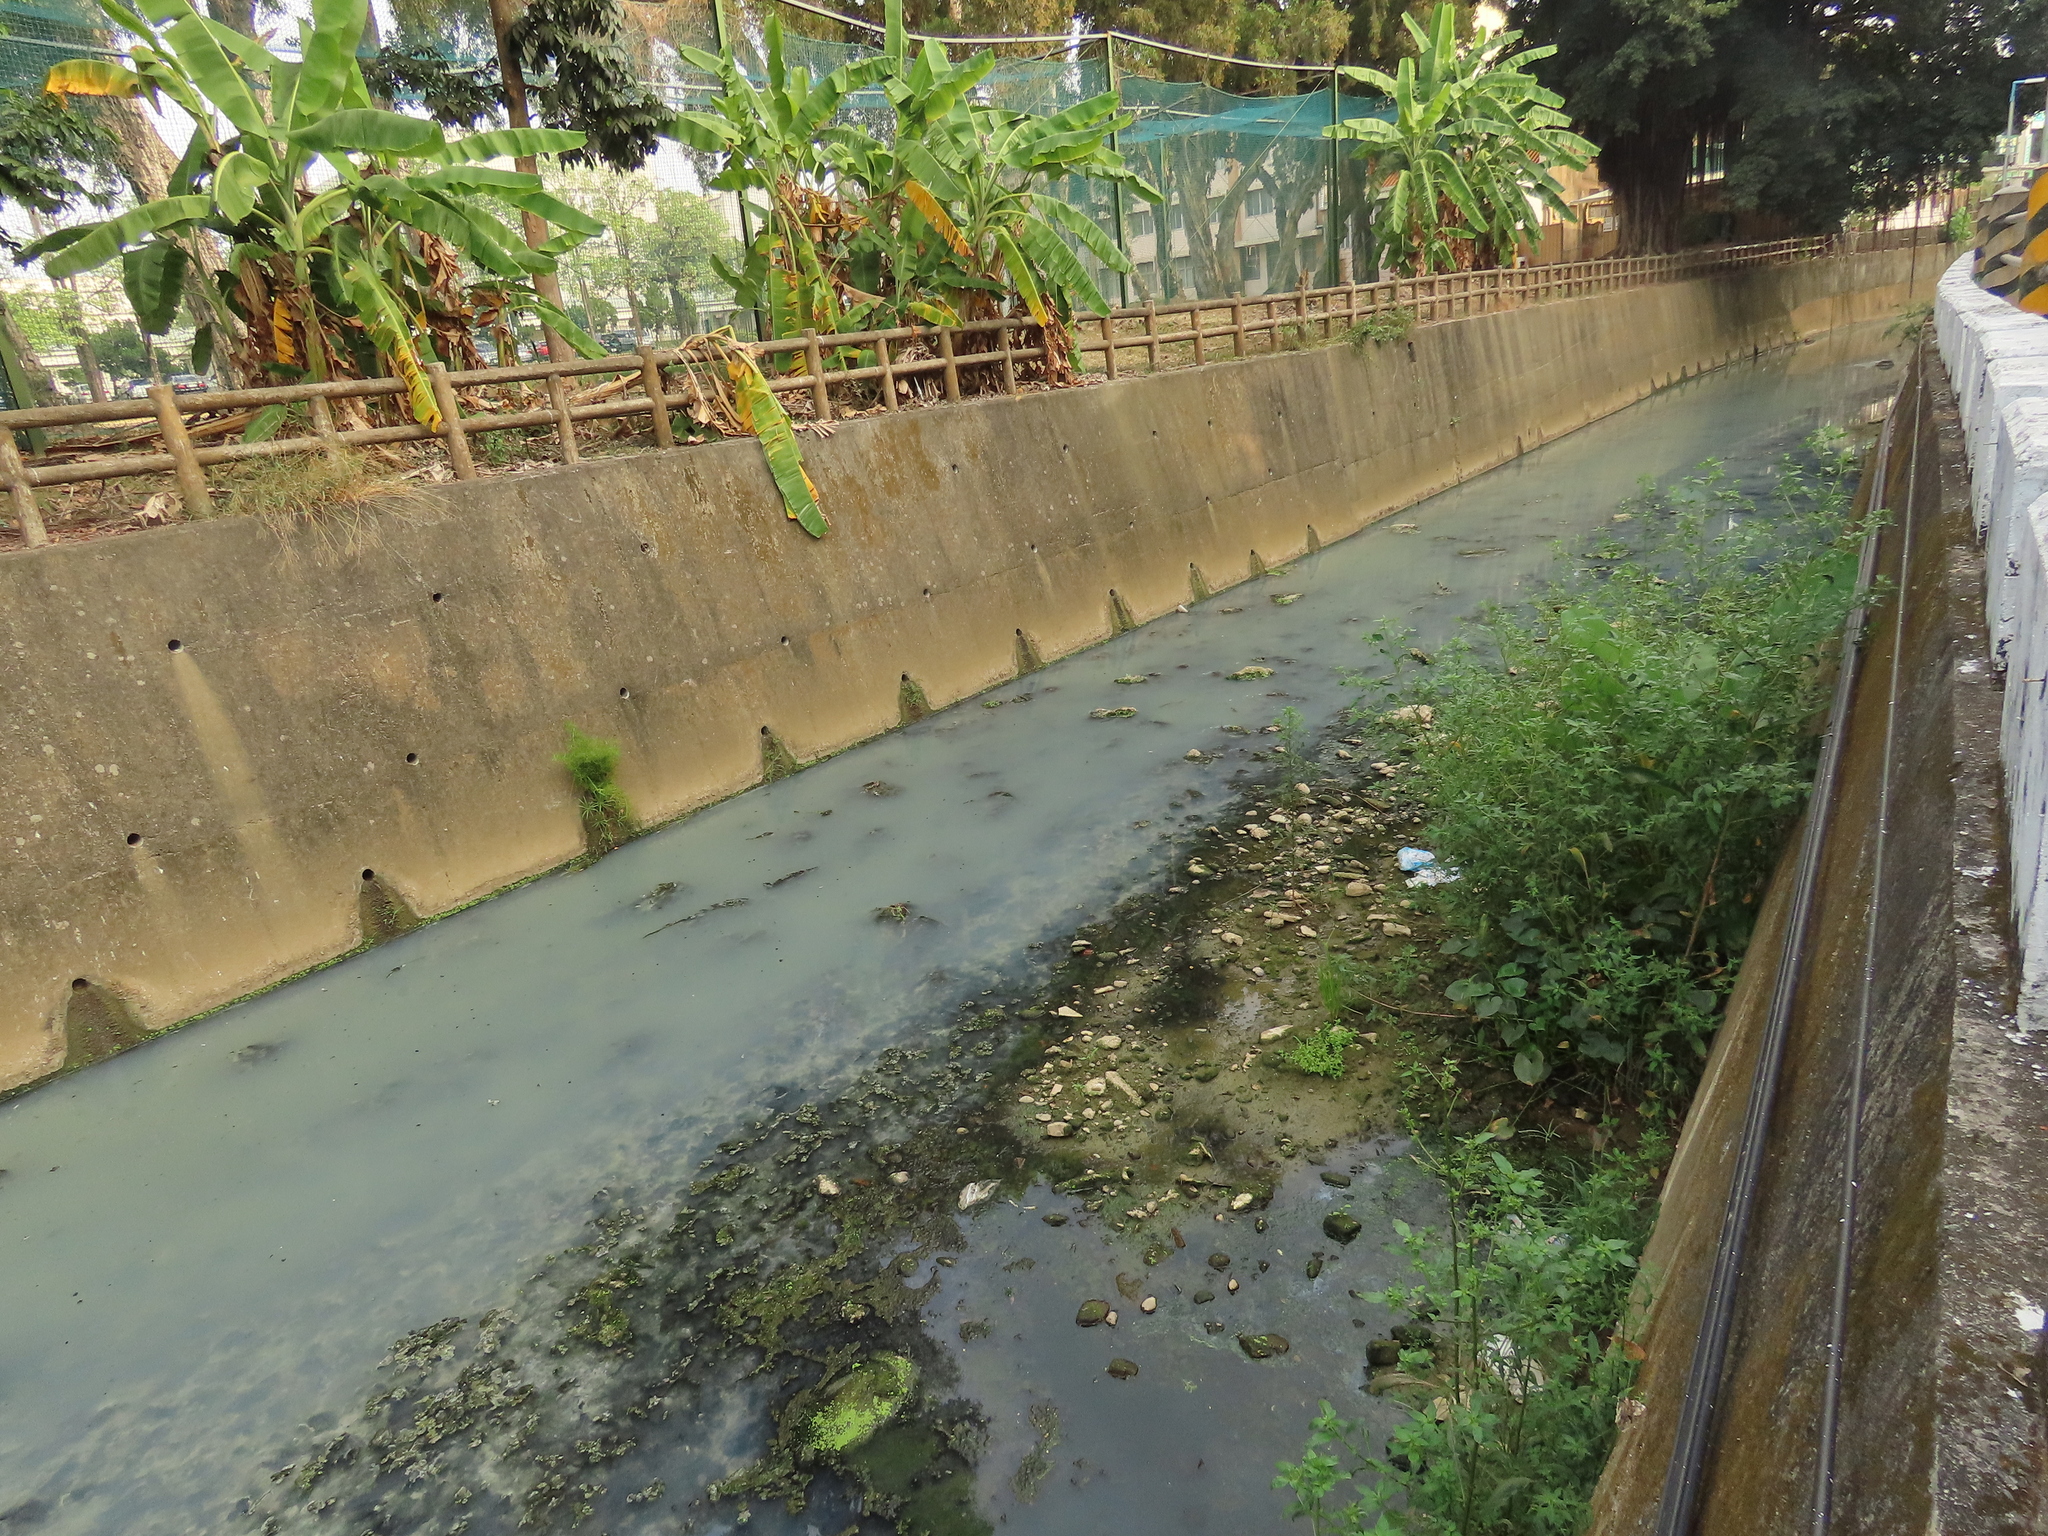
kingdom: Plantae
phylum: Tracheophyta
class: Liliopsida
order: Alismatales
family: Araceae
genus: Lemna
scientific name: Lemna aequinoctialis
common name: Duckweed
